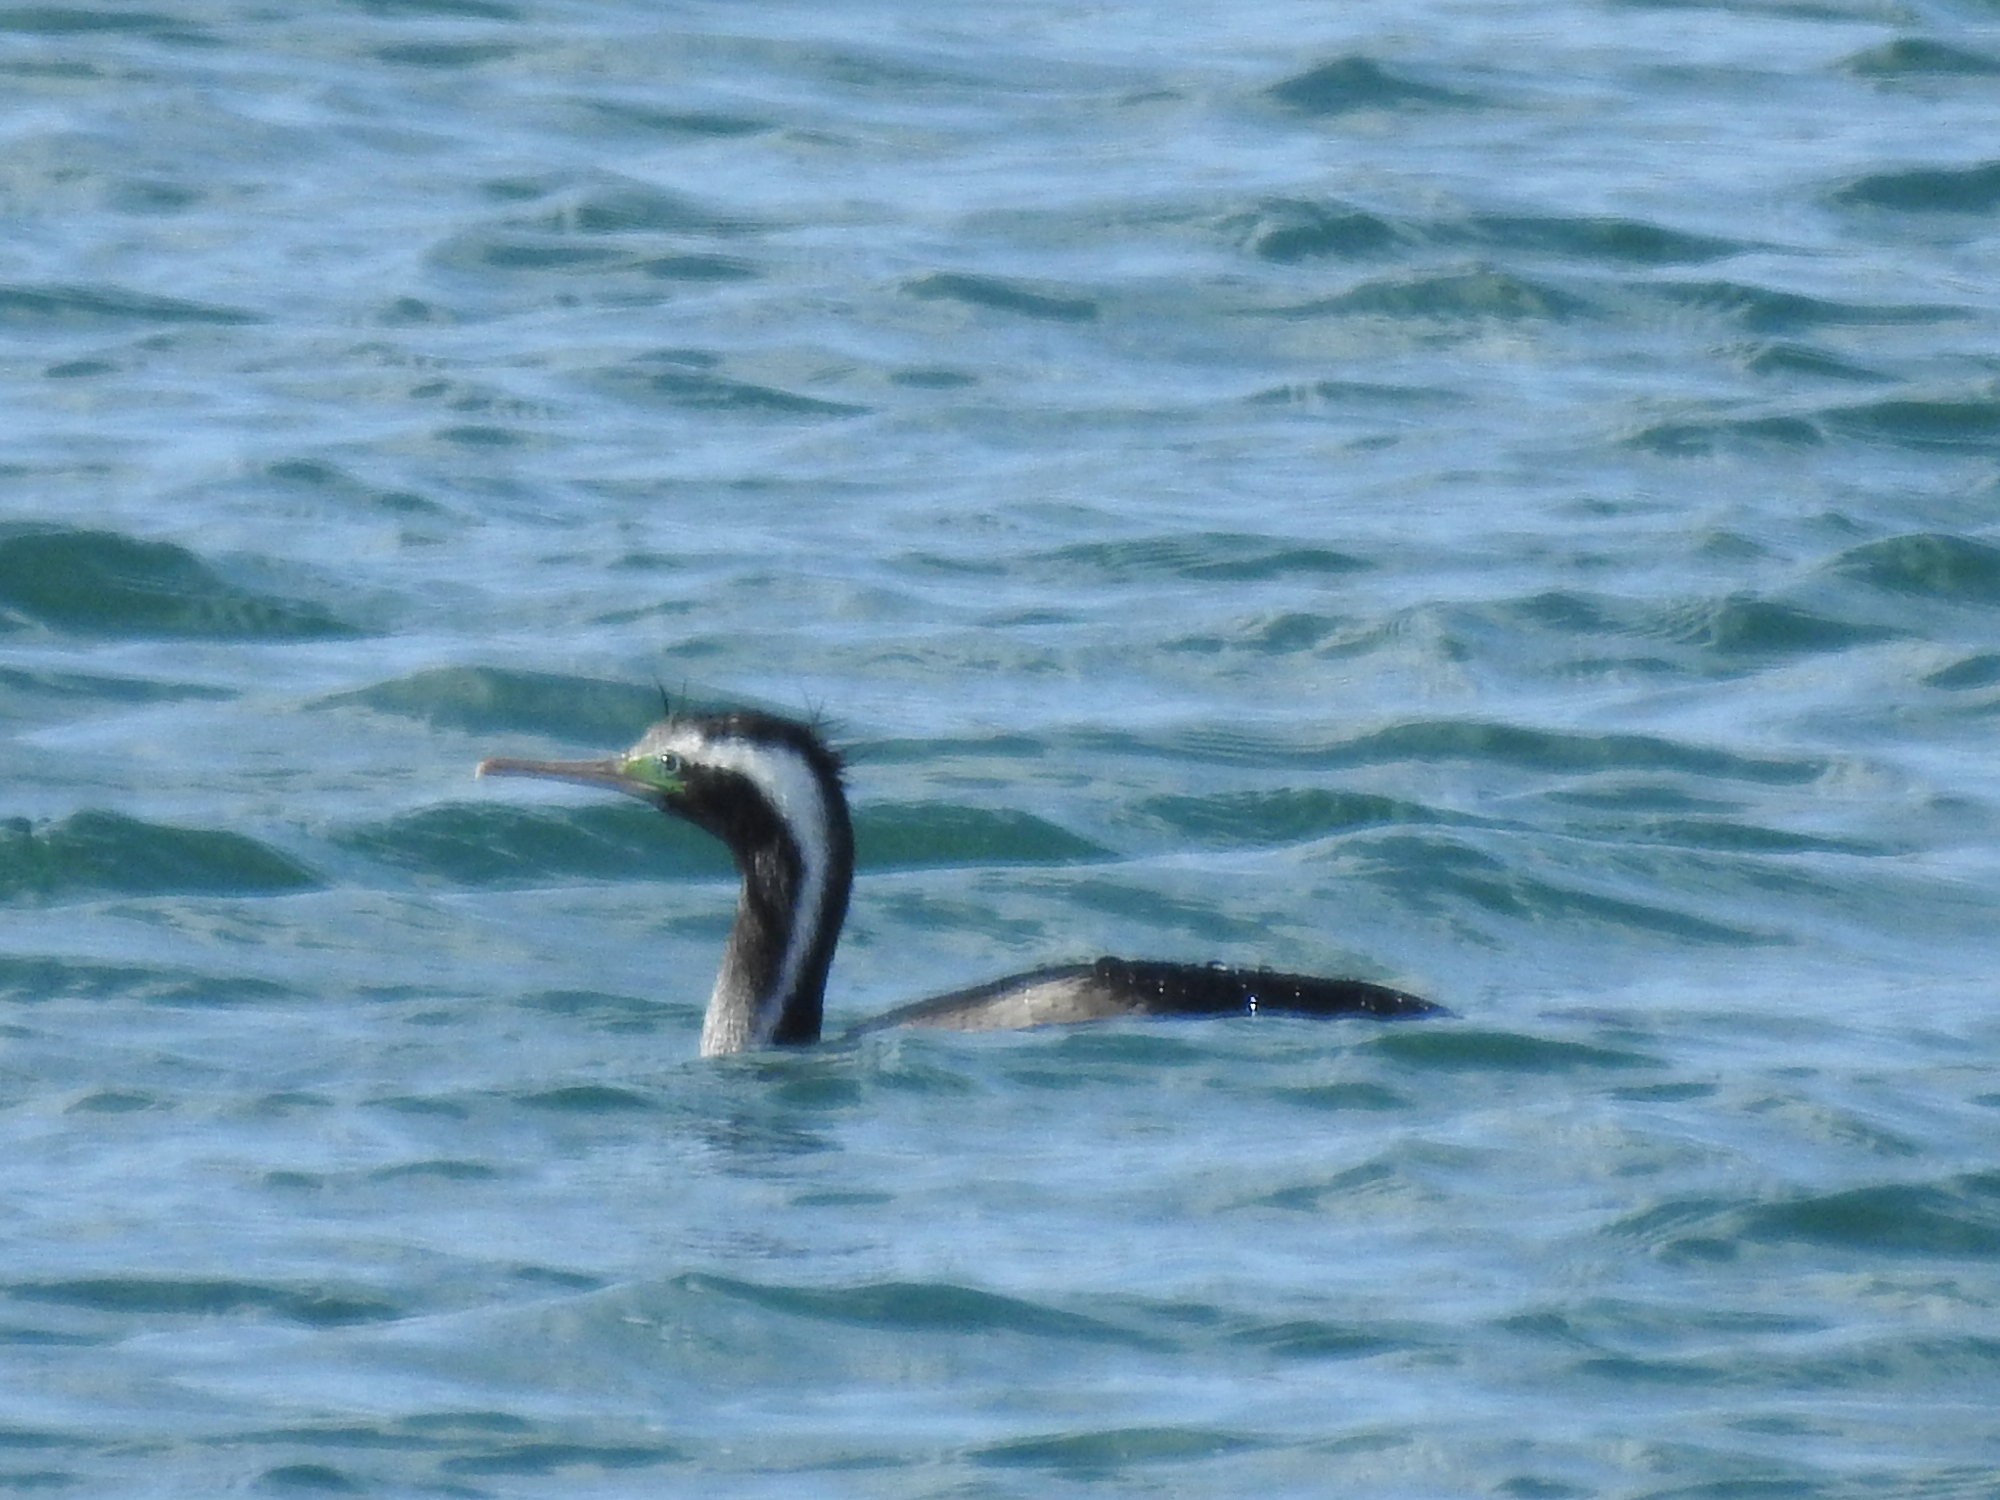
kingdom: Animalia
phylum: Chordata
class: Aves
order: Suliformes
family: Phalacrocoracidae
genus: Phalacrocorax
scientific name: Phalacrocorax punctatus
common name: Spotted shag
